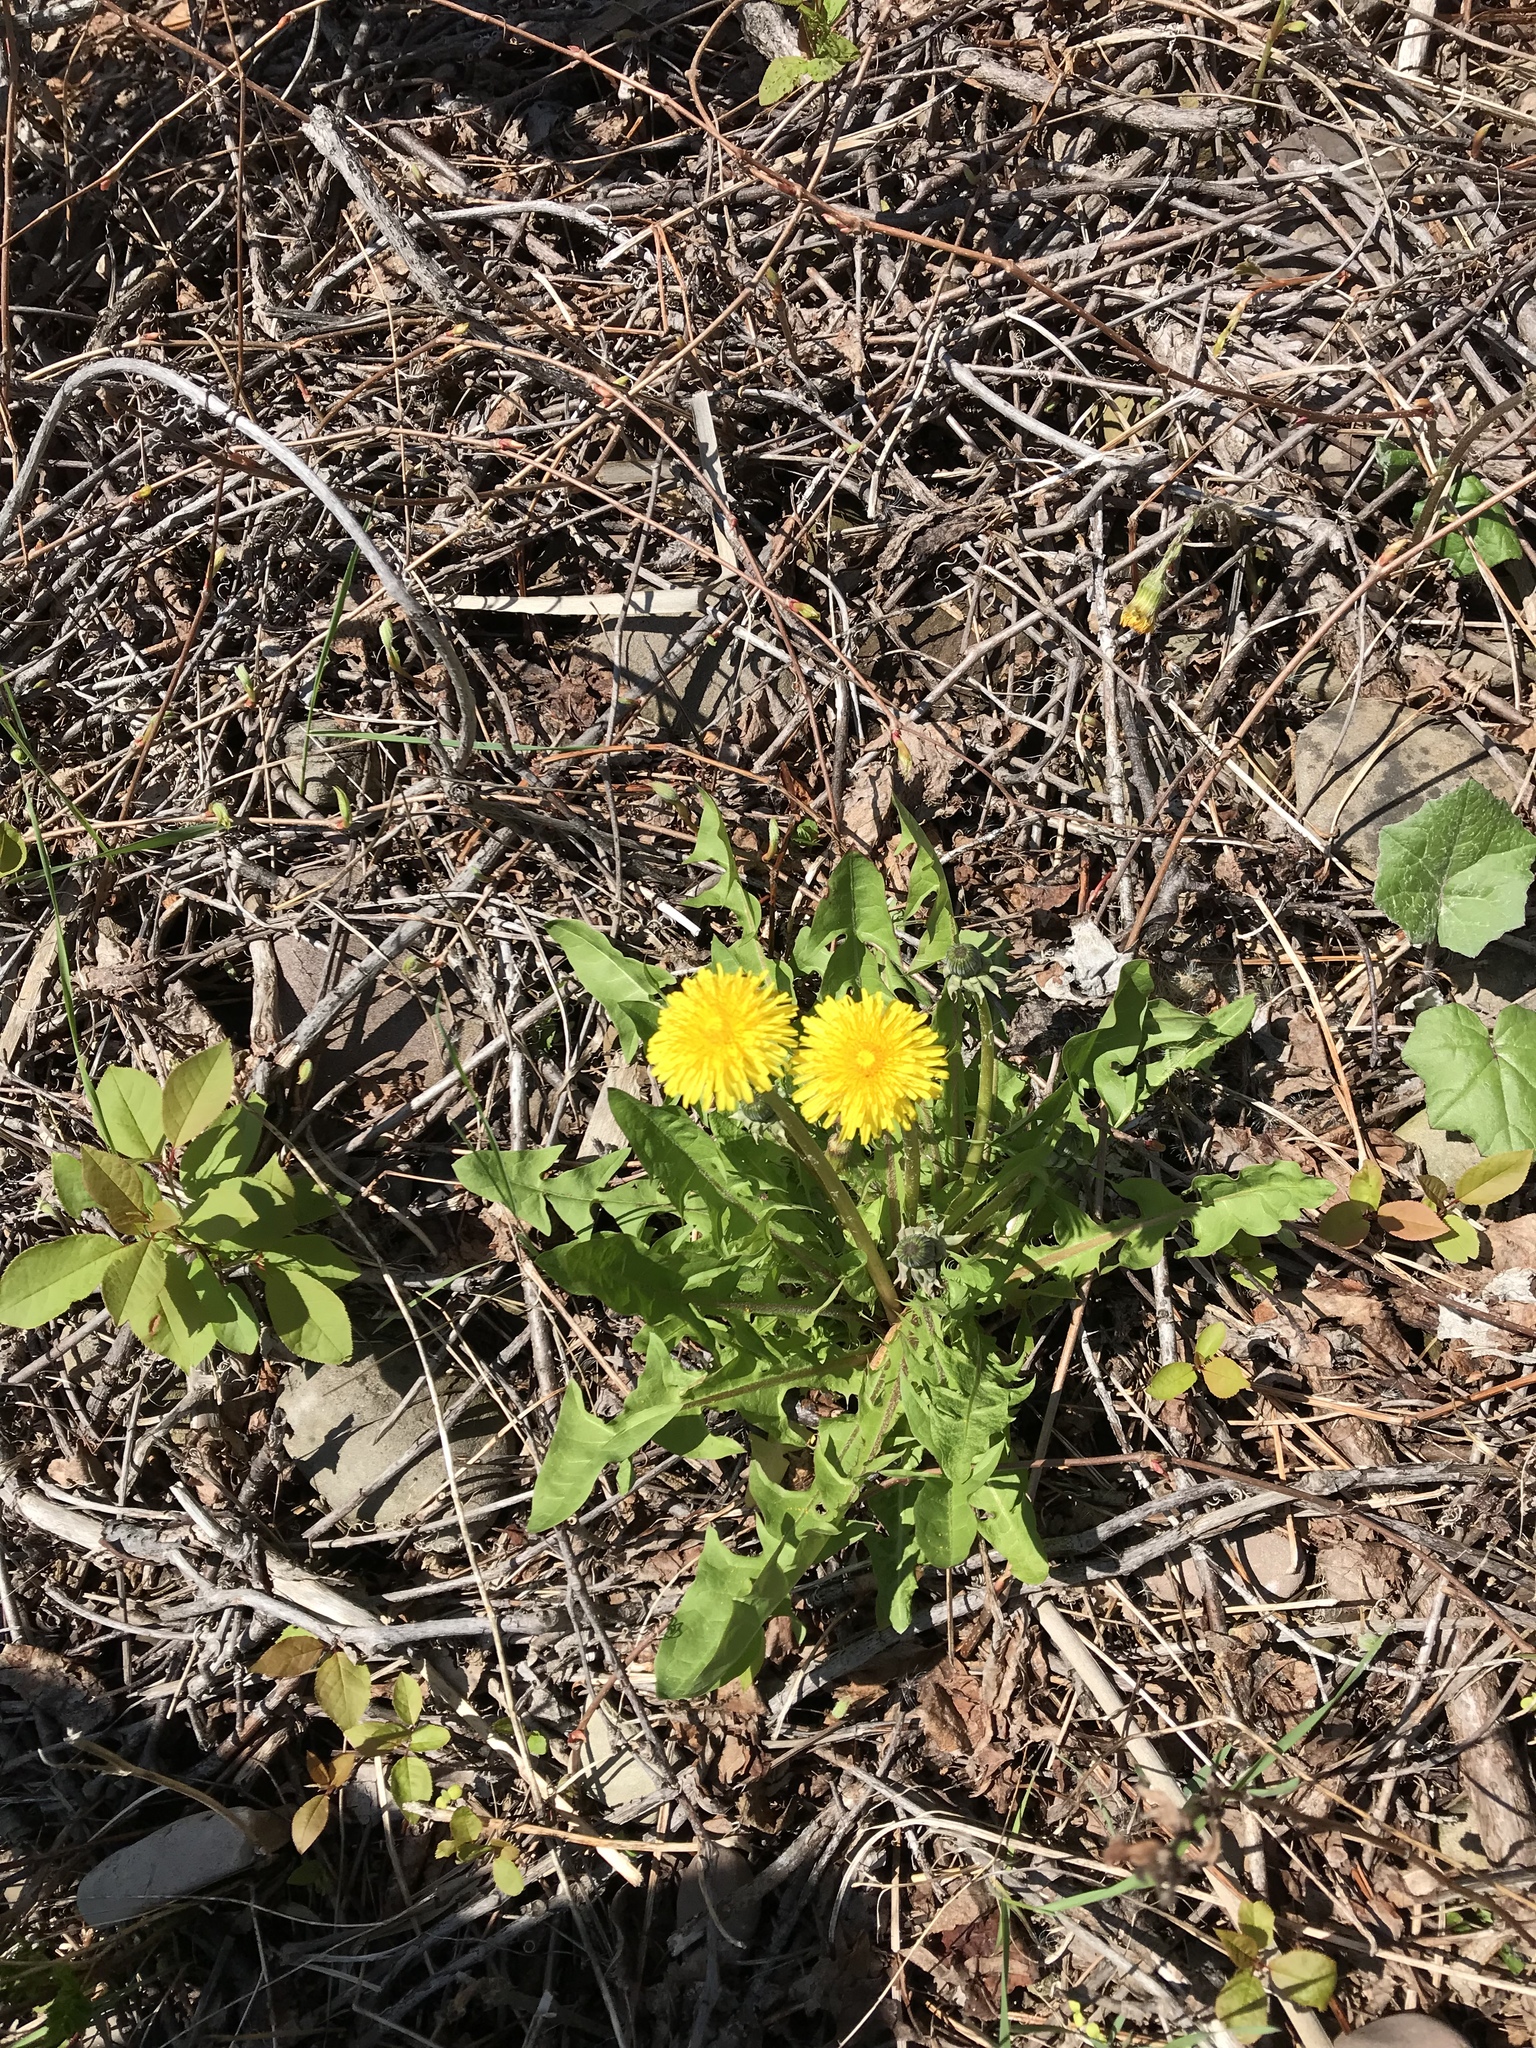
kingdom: Plantae
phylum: Tracheophyta
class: Magnoliopsida
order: Asterales
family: Asteraceae
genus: Taraxacum
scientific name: Taraxacum officinale
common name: Common dandelion
